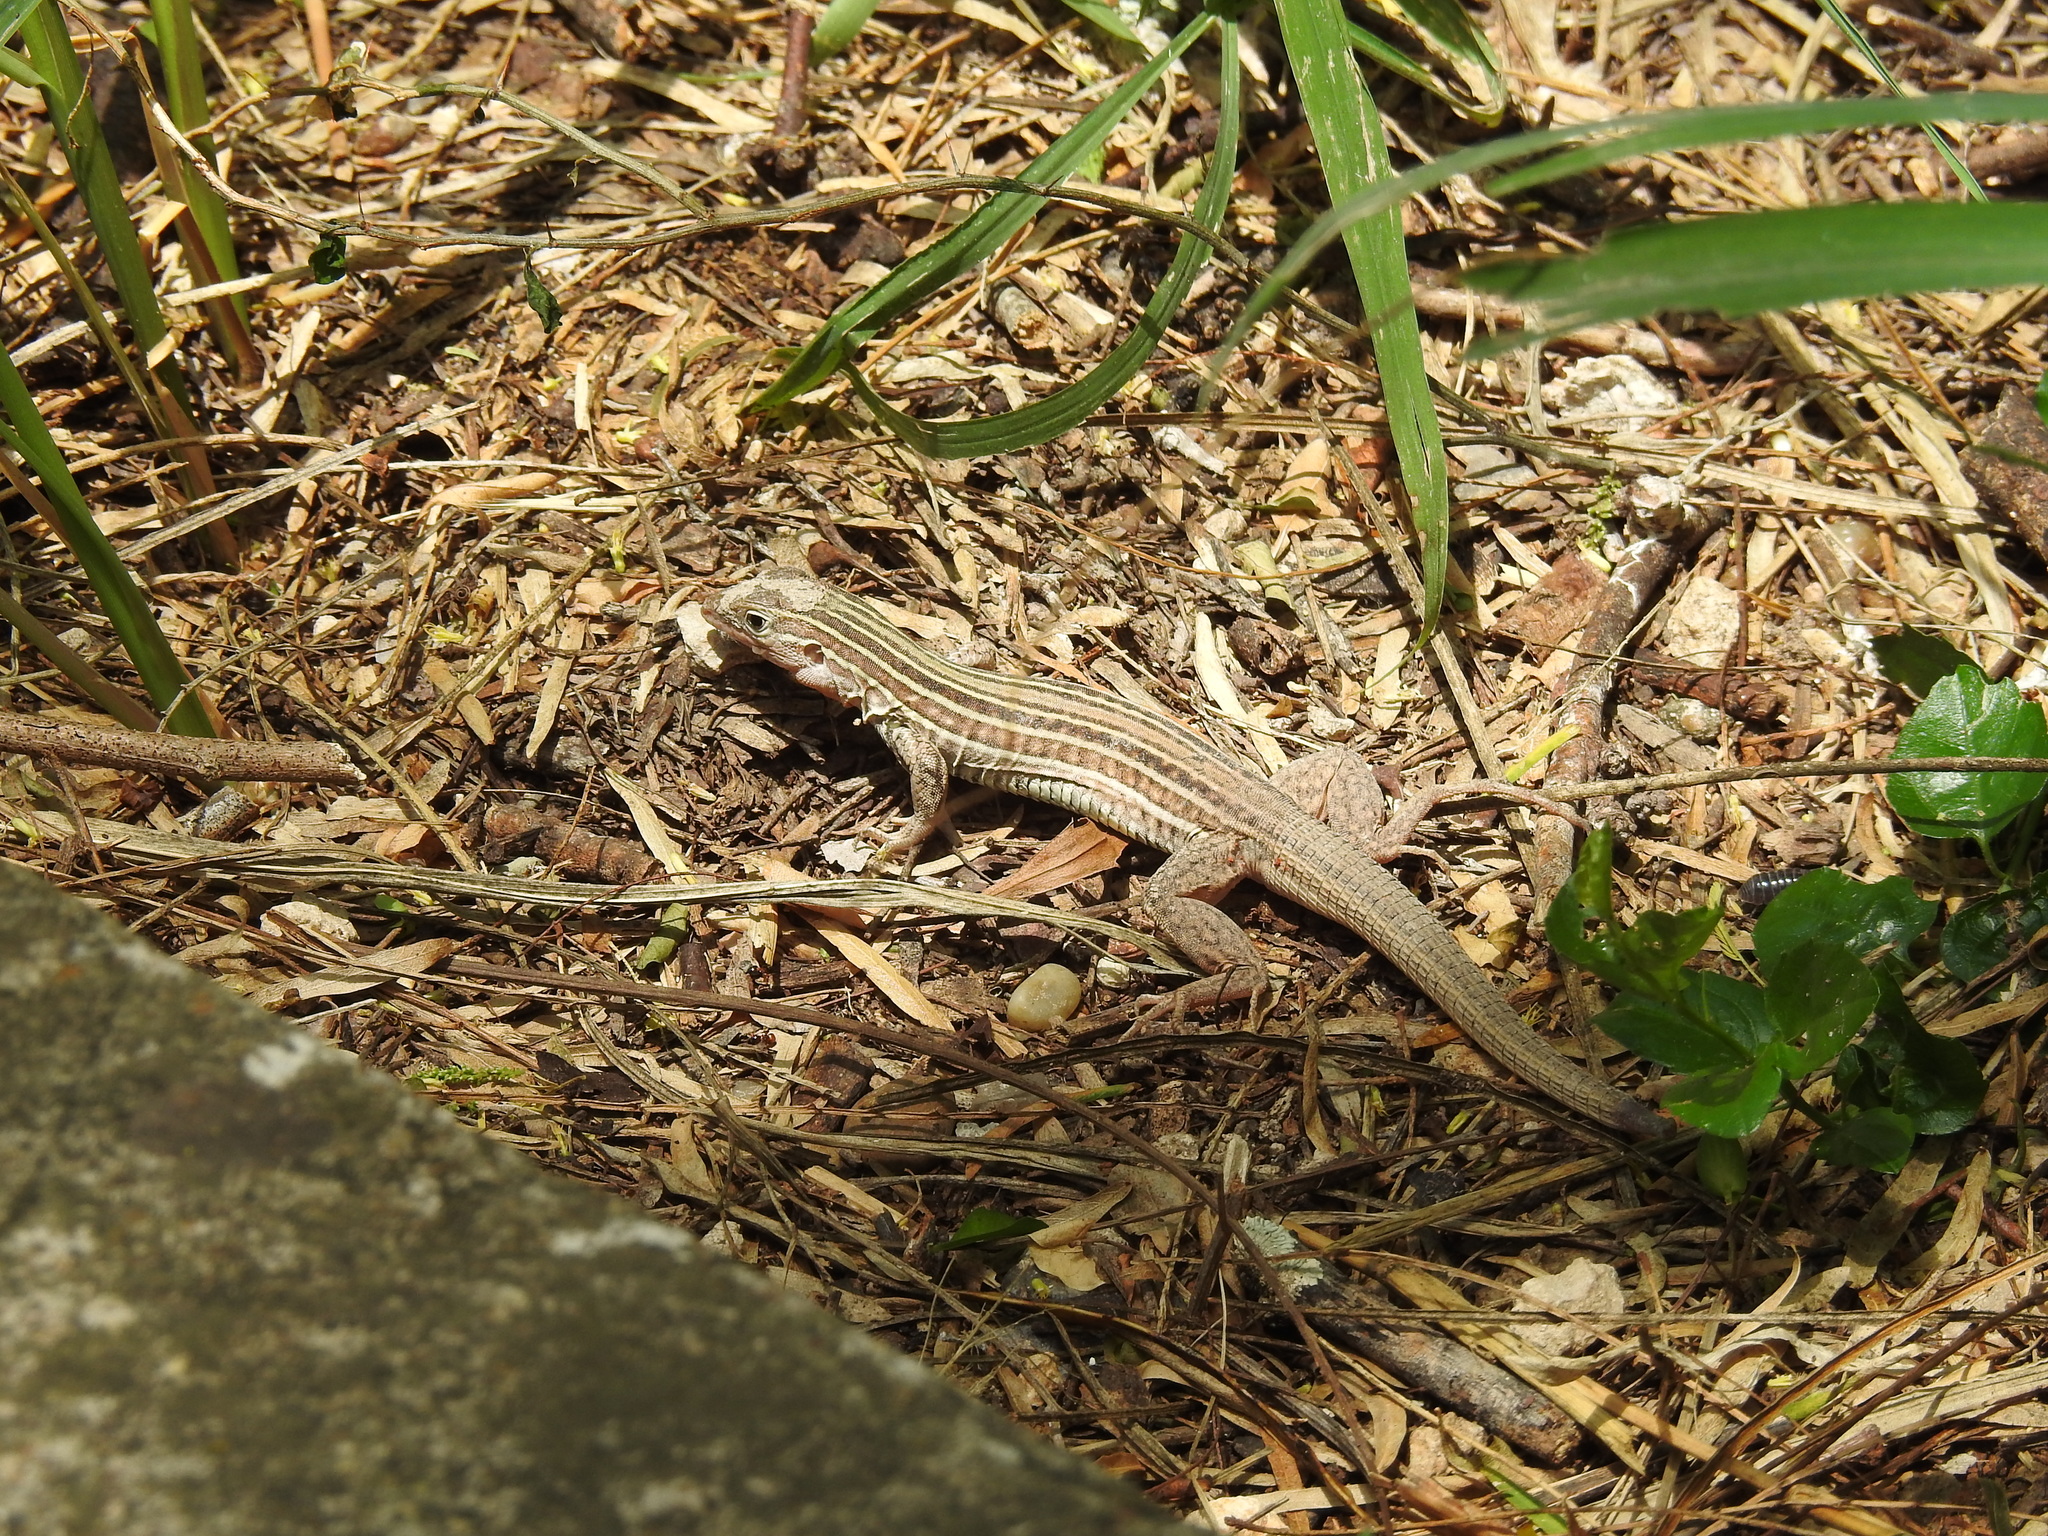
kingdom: Animalia
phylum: Chordata
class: Squamata
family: Teiidae
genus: Aspidoscelis
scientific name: Aspidoscelis gularis
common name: Eastern spotted whiptail
